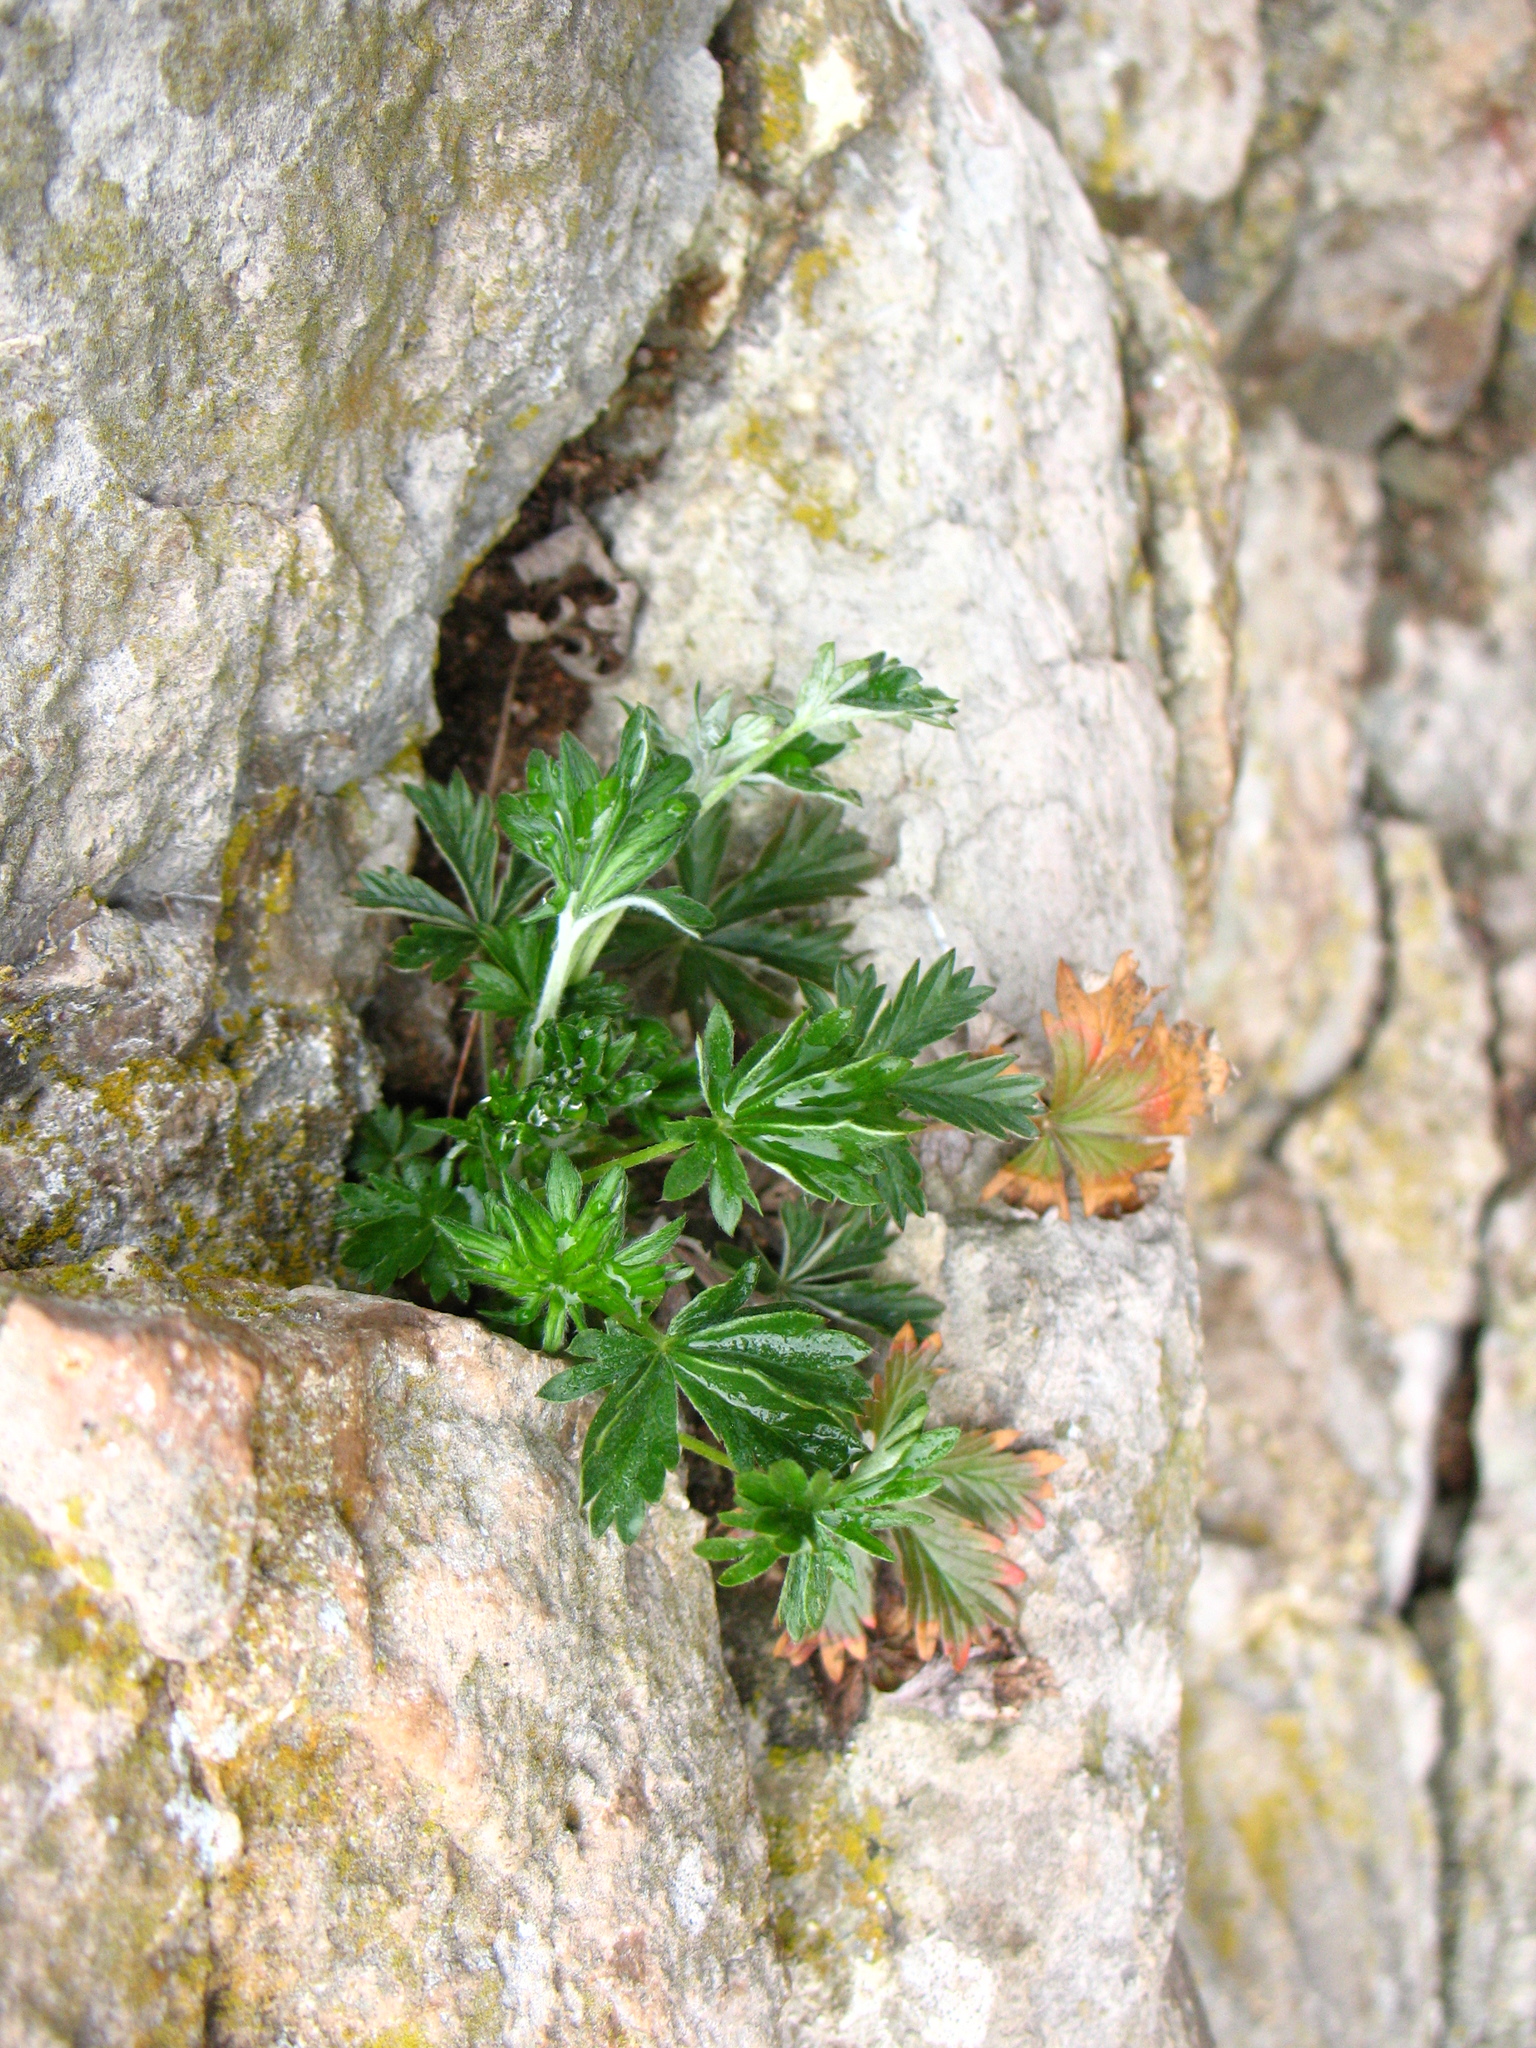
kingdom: Plantae
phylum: Tracheophyta
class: Magnoliopsida
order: Rosales
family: Rosaceae
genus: Potentilla
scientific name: Potentilla argentea
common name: Hoary cinquefoil
